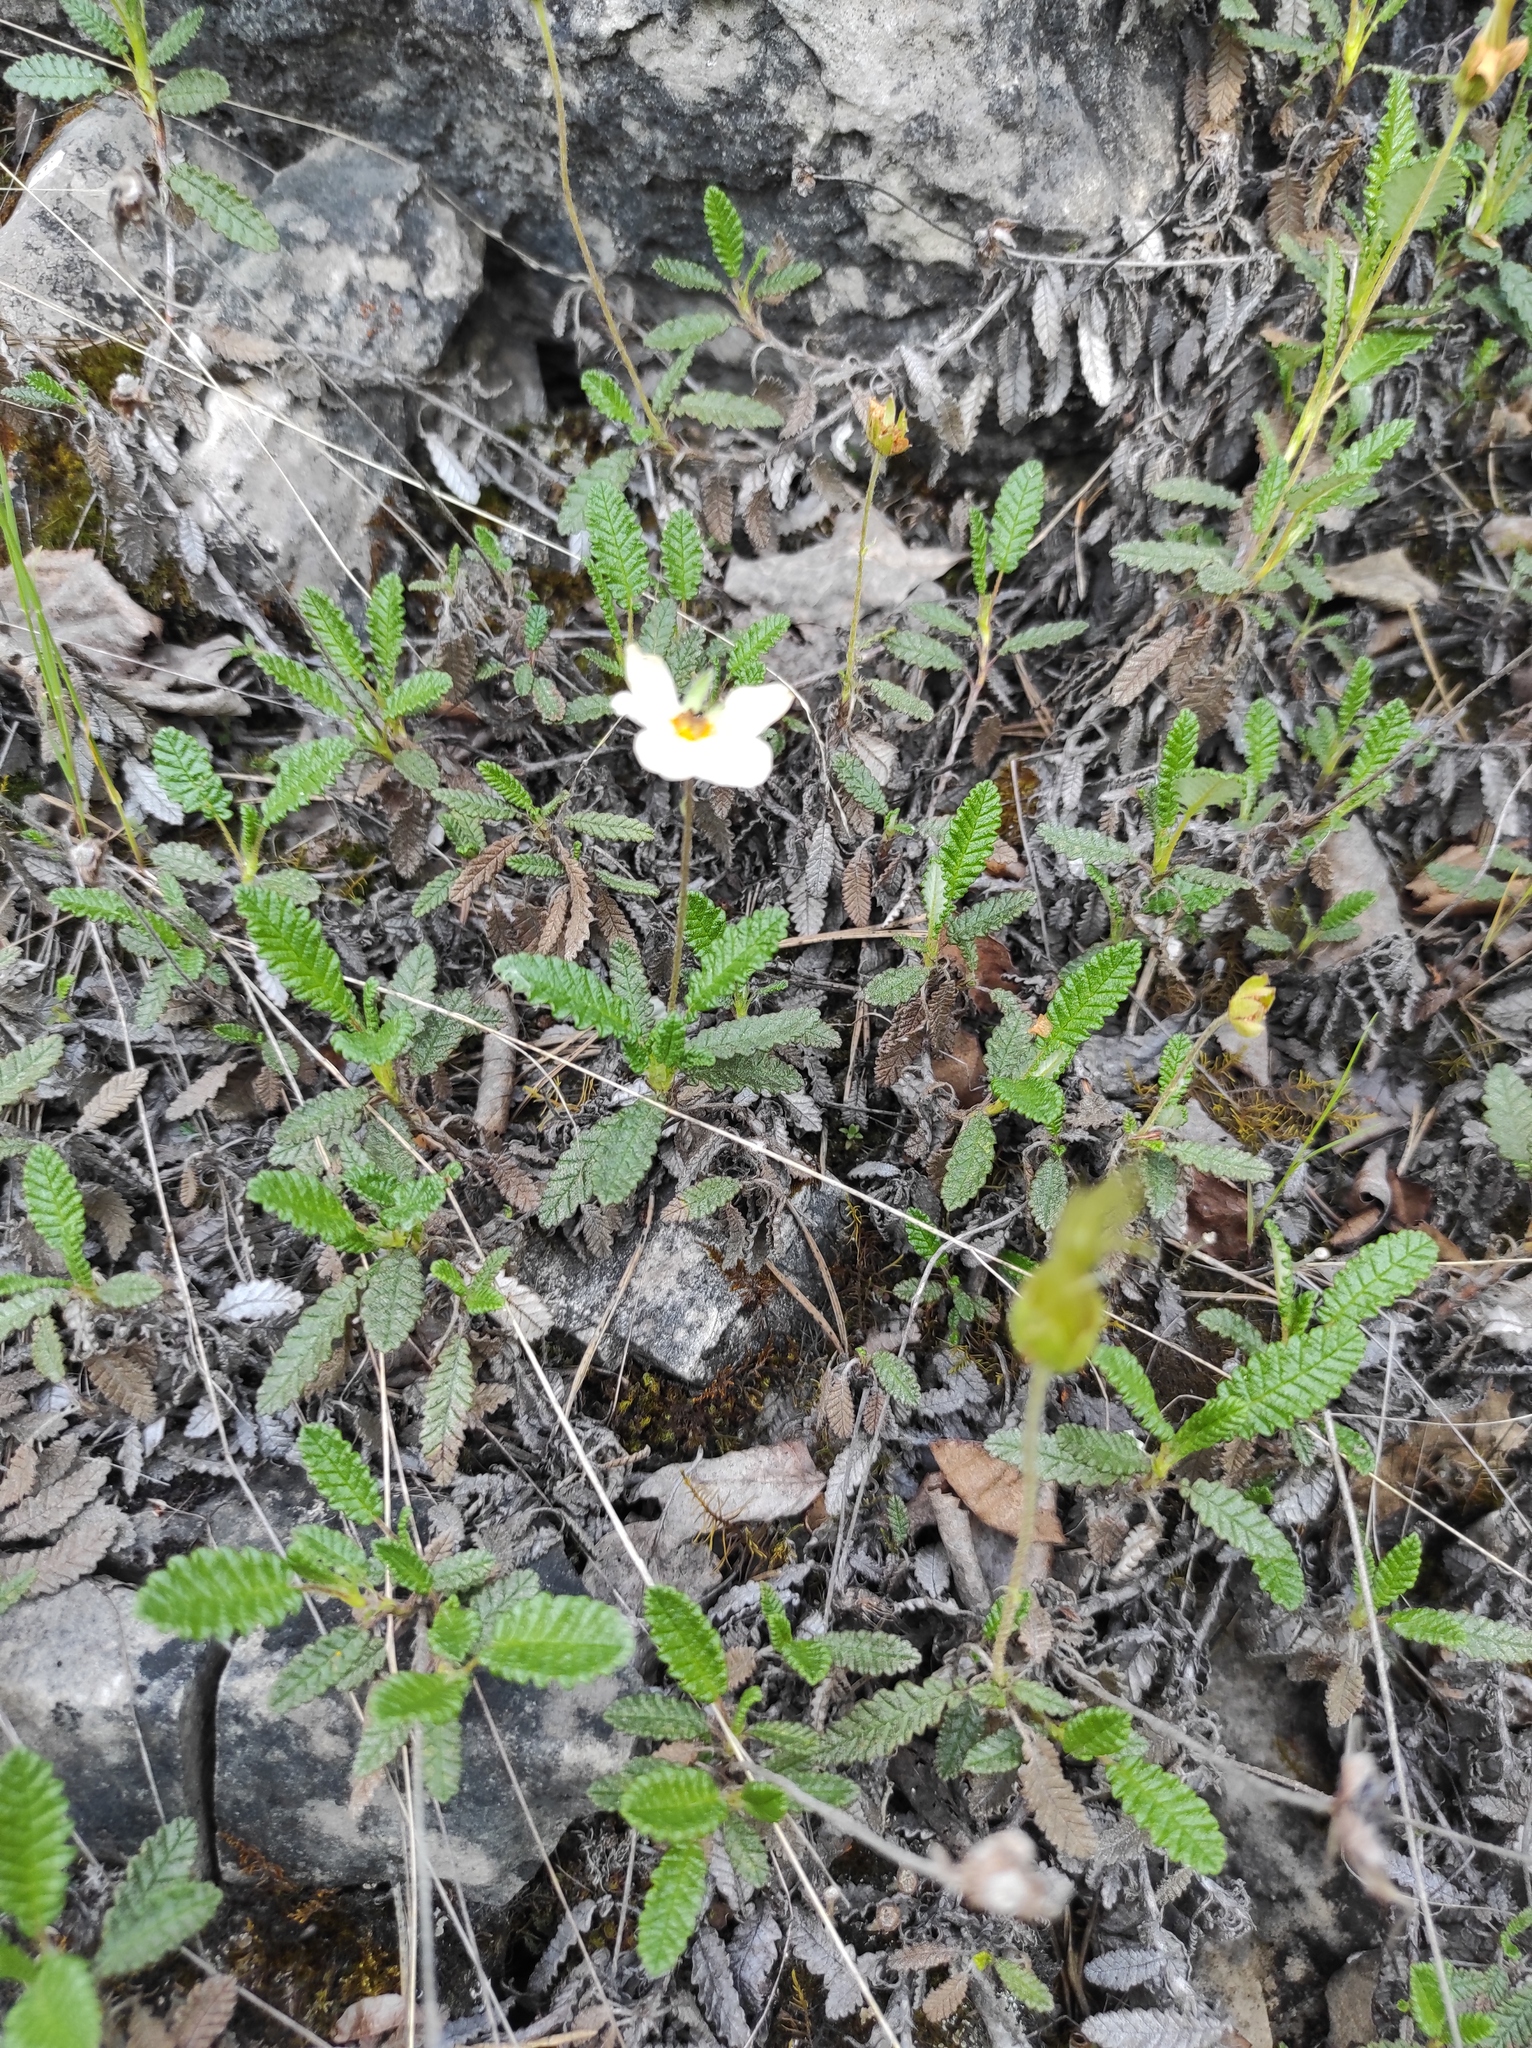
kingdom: Plantae
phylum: Tracheophyta
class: Magnoliopsida
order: Rosales
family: Rosaceae
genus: Dryas
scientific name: Dryas octopetala
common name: Eight-petal mountain-avens
